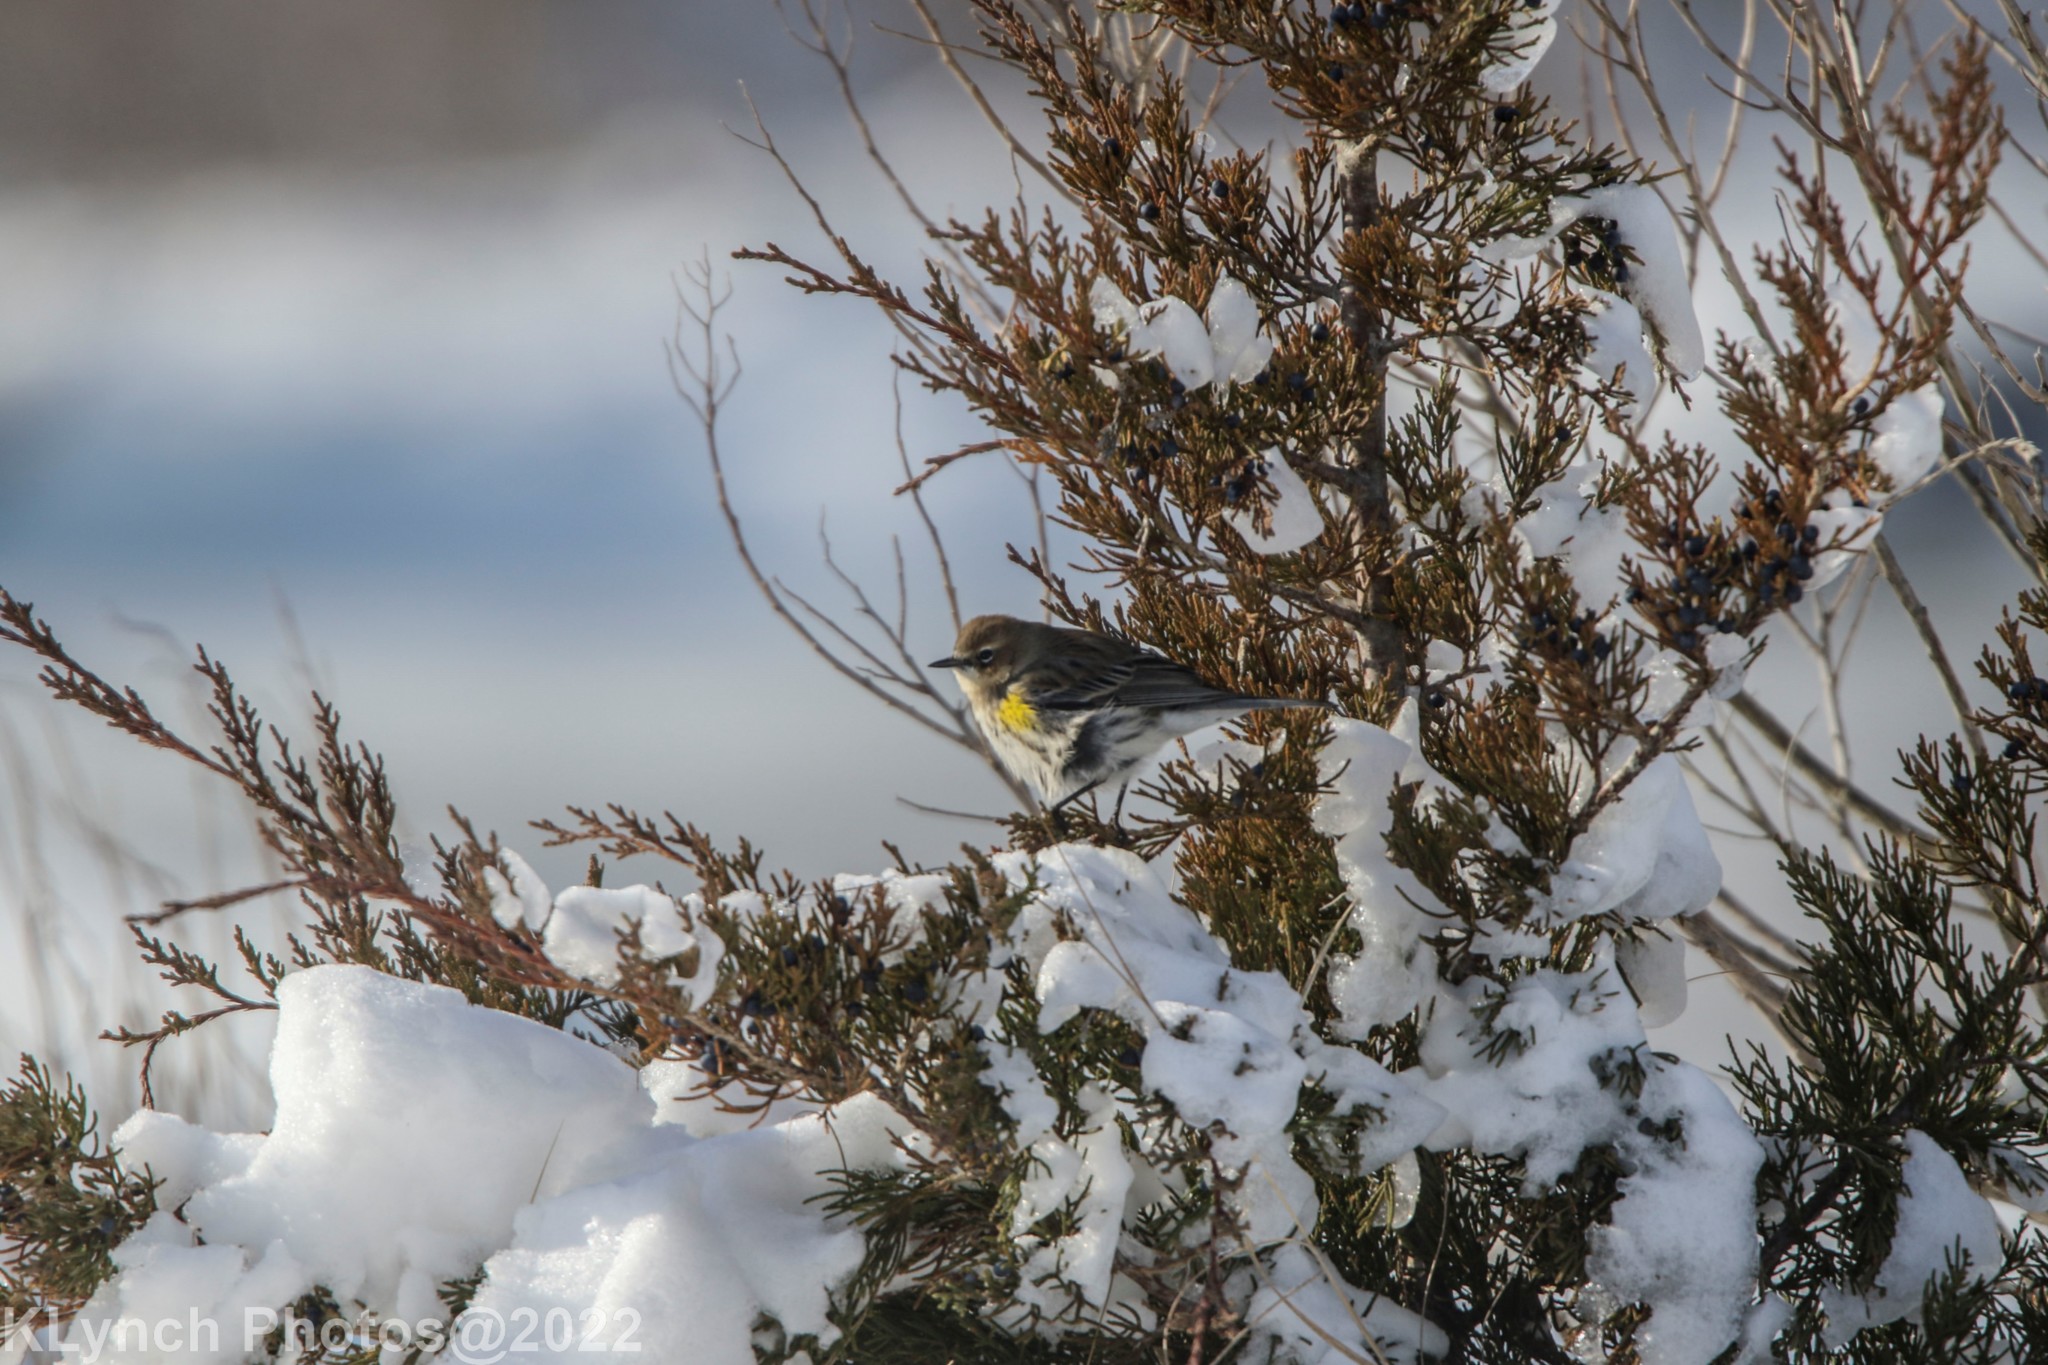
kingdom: Animalia
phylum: Chordata
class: Aves
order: Passeriformes
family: Parulidae
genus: Setophaga
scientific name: Setophaga coronata
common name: Myrtle warbler
